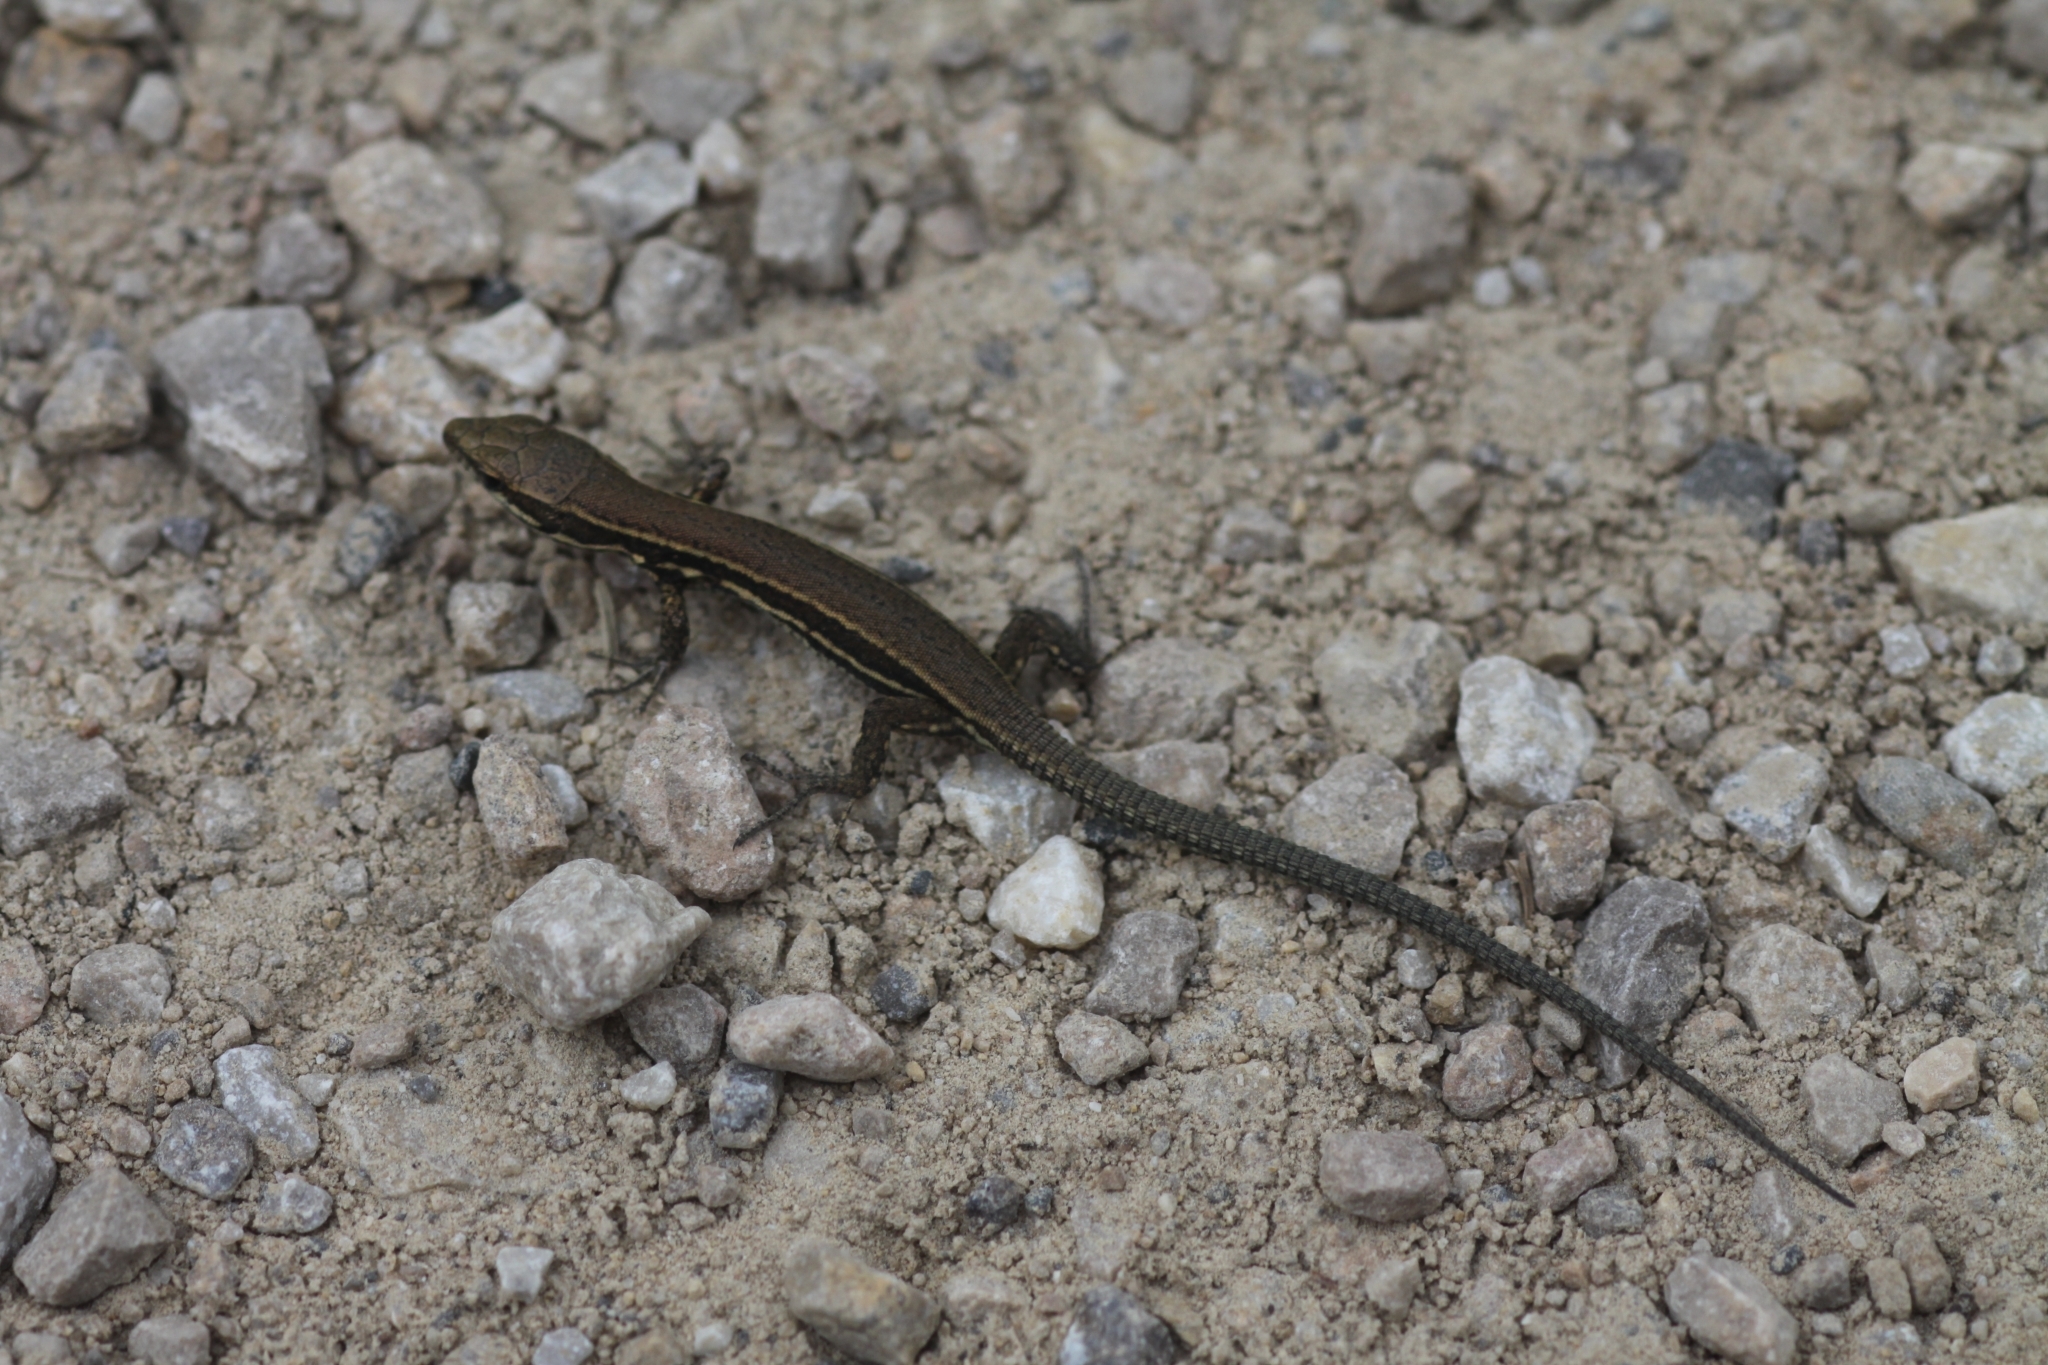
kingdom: Animalia
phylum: Chordata
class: Squamata
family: Lacertidae
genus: Podarcis
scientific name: Podarcis muralis
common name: Common wall lizard
